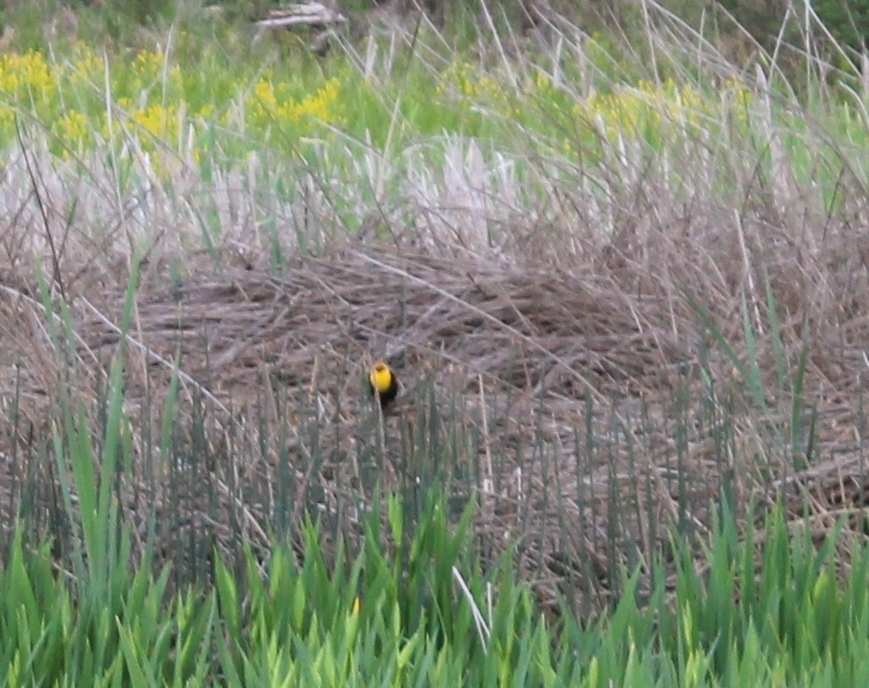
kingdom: Animalia
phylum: Chordata
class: Aves
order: Passeriformes
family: Icteridae
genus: Xanthocephalus
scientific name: Xanthocephalus xanthocephalus
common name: Yellow-headed blackbird
